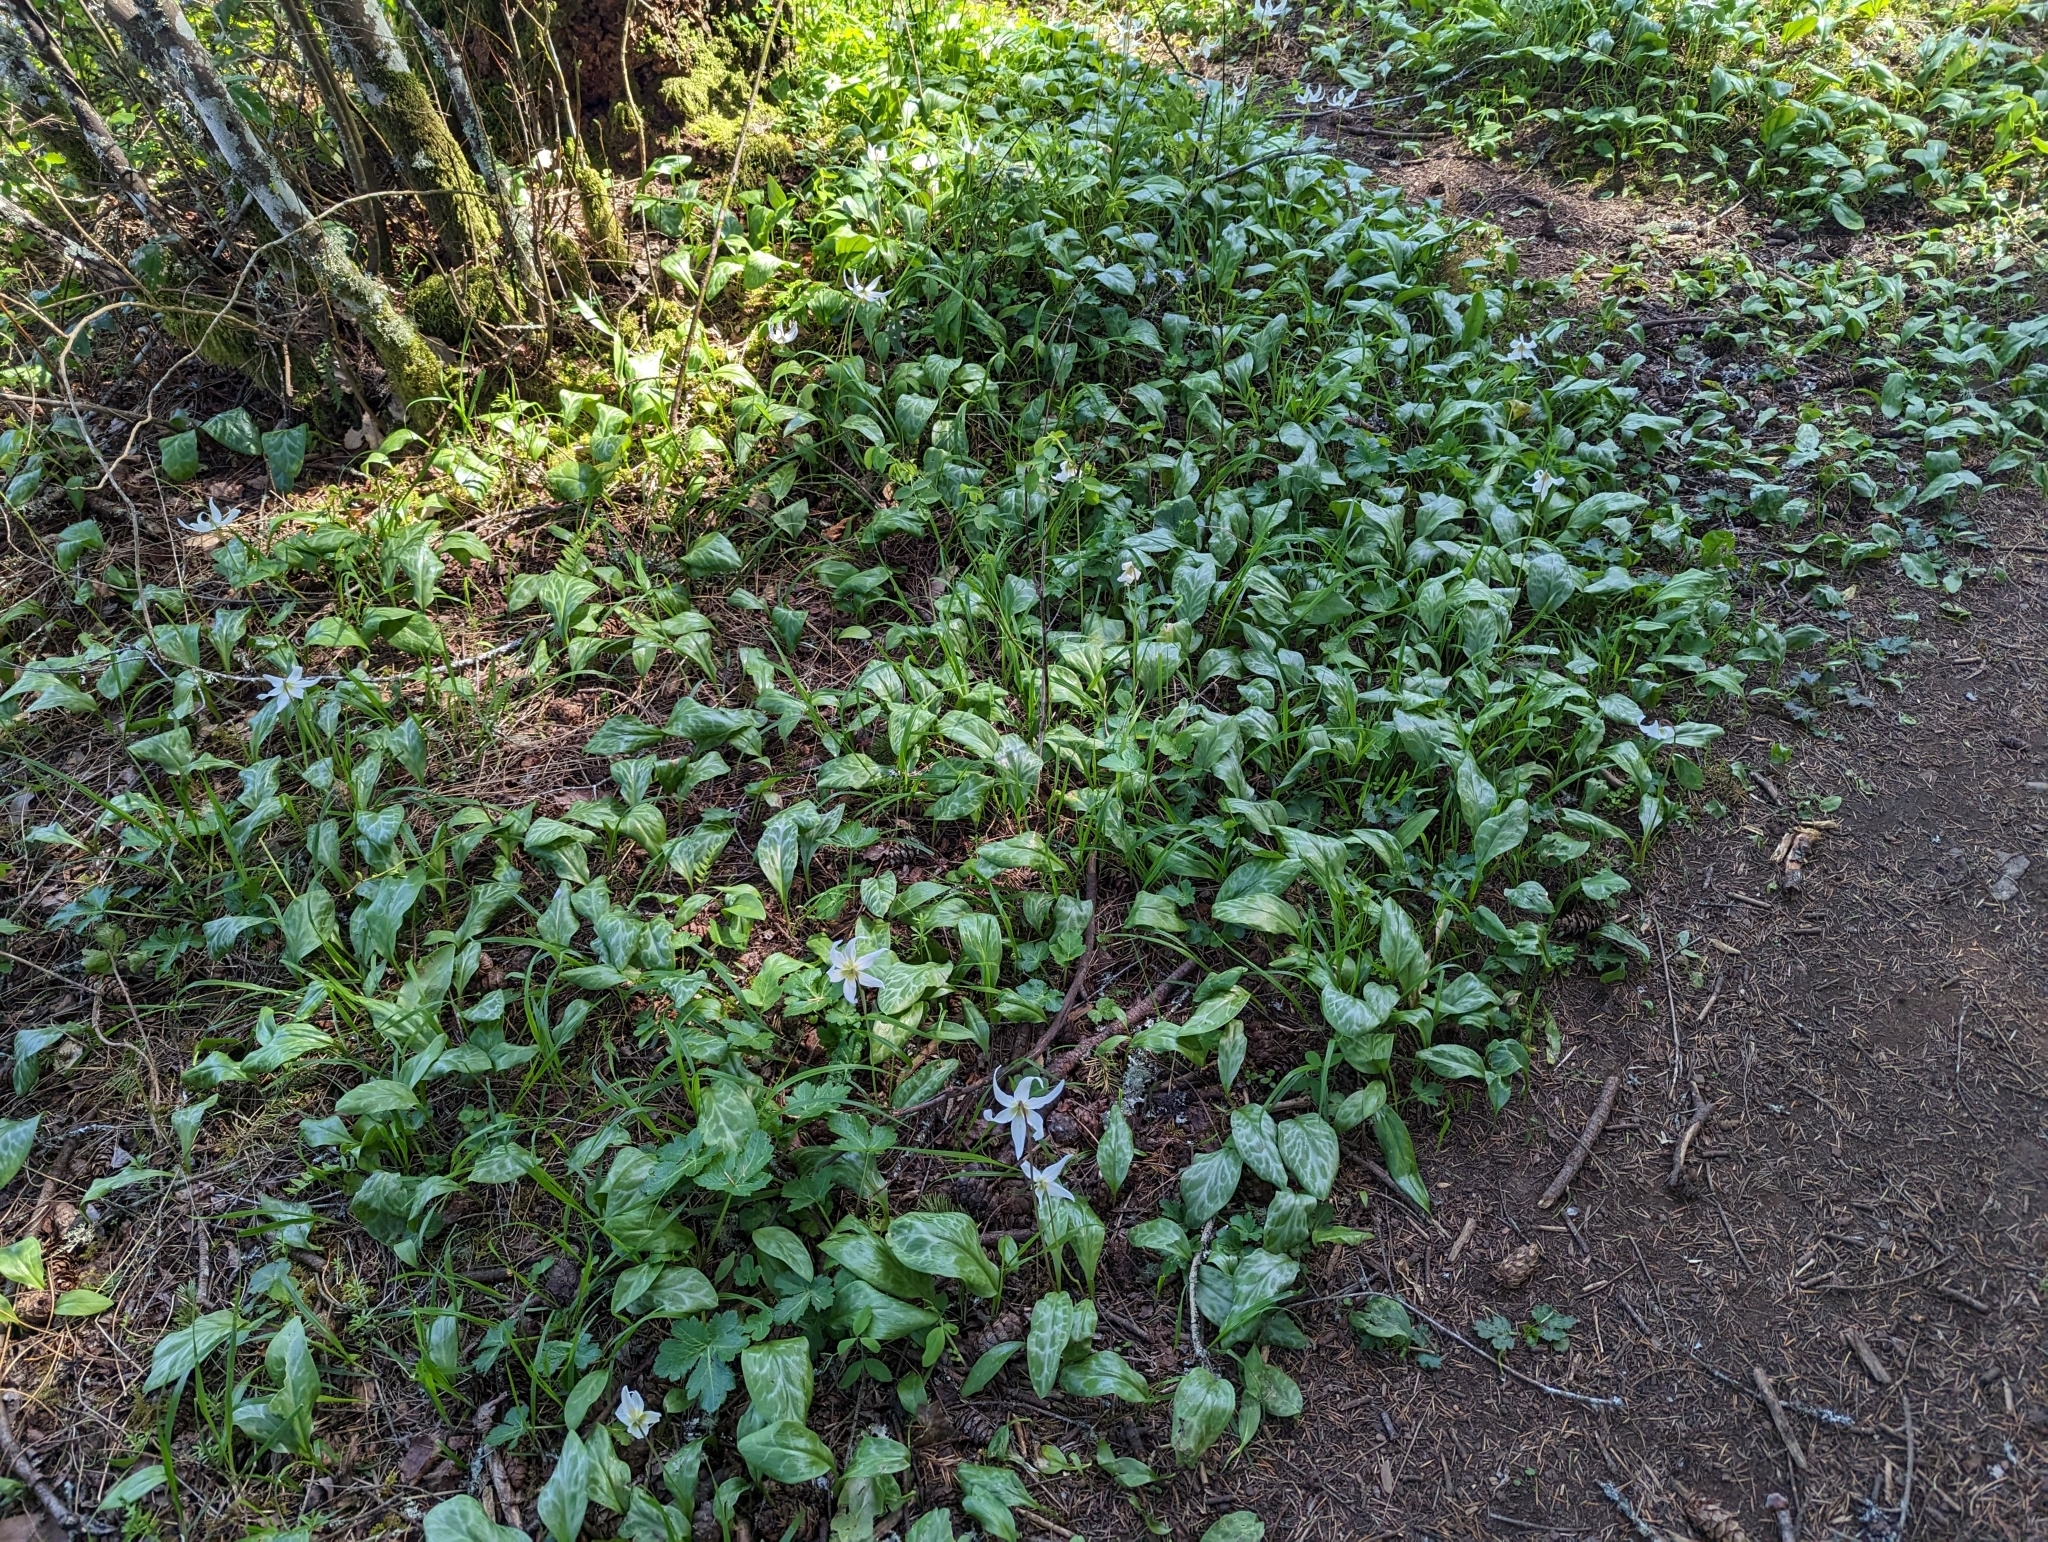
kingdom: Plantae
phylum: Tracheophyta
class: Liliopsida
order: Liliales
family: Liliaceae
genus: Erythronium
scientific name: Erythronium oregonum
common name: Giant adder's-tongue
